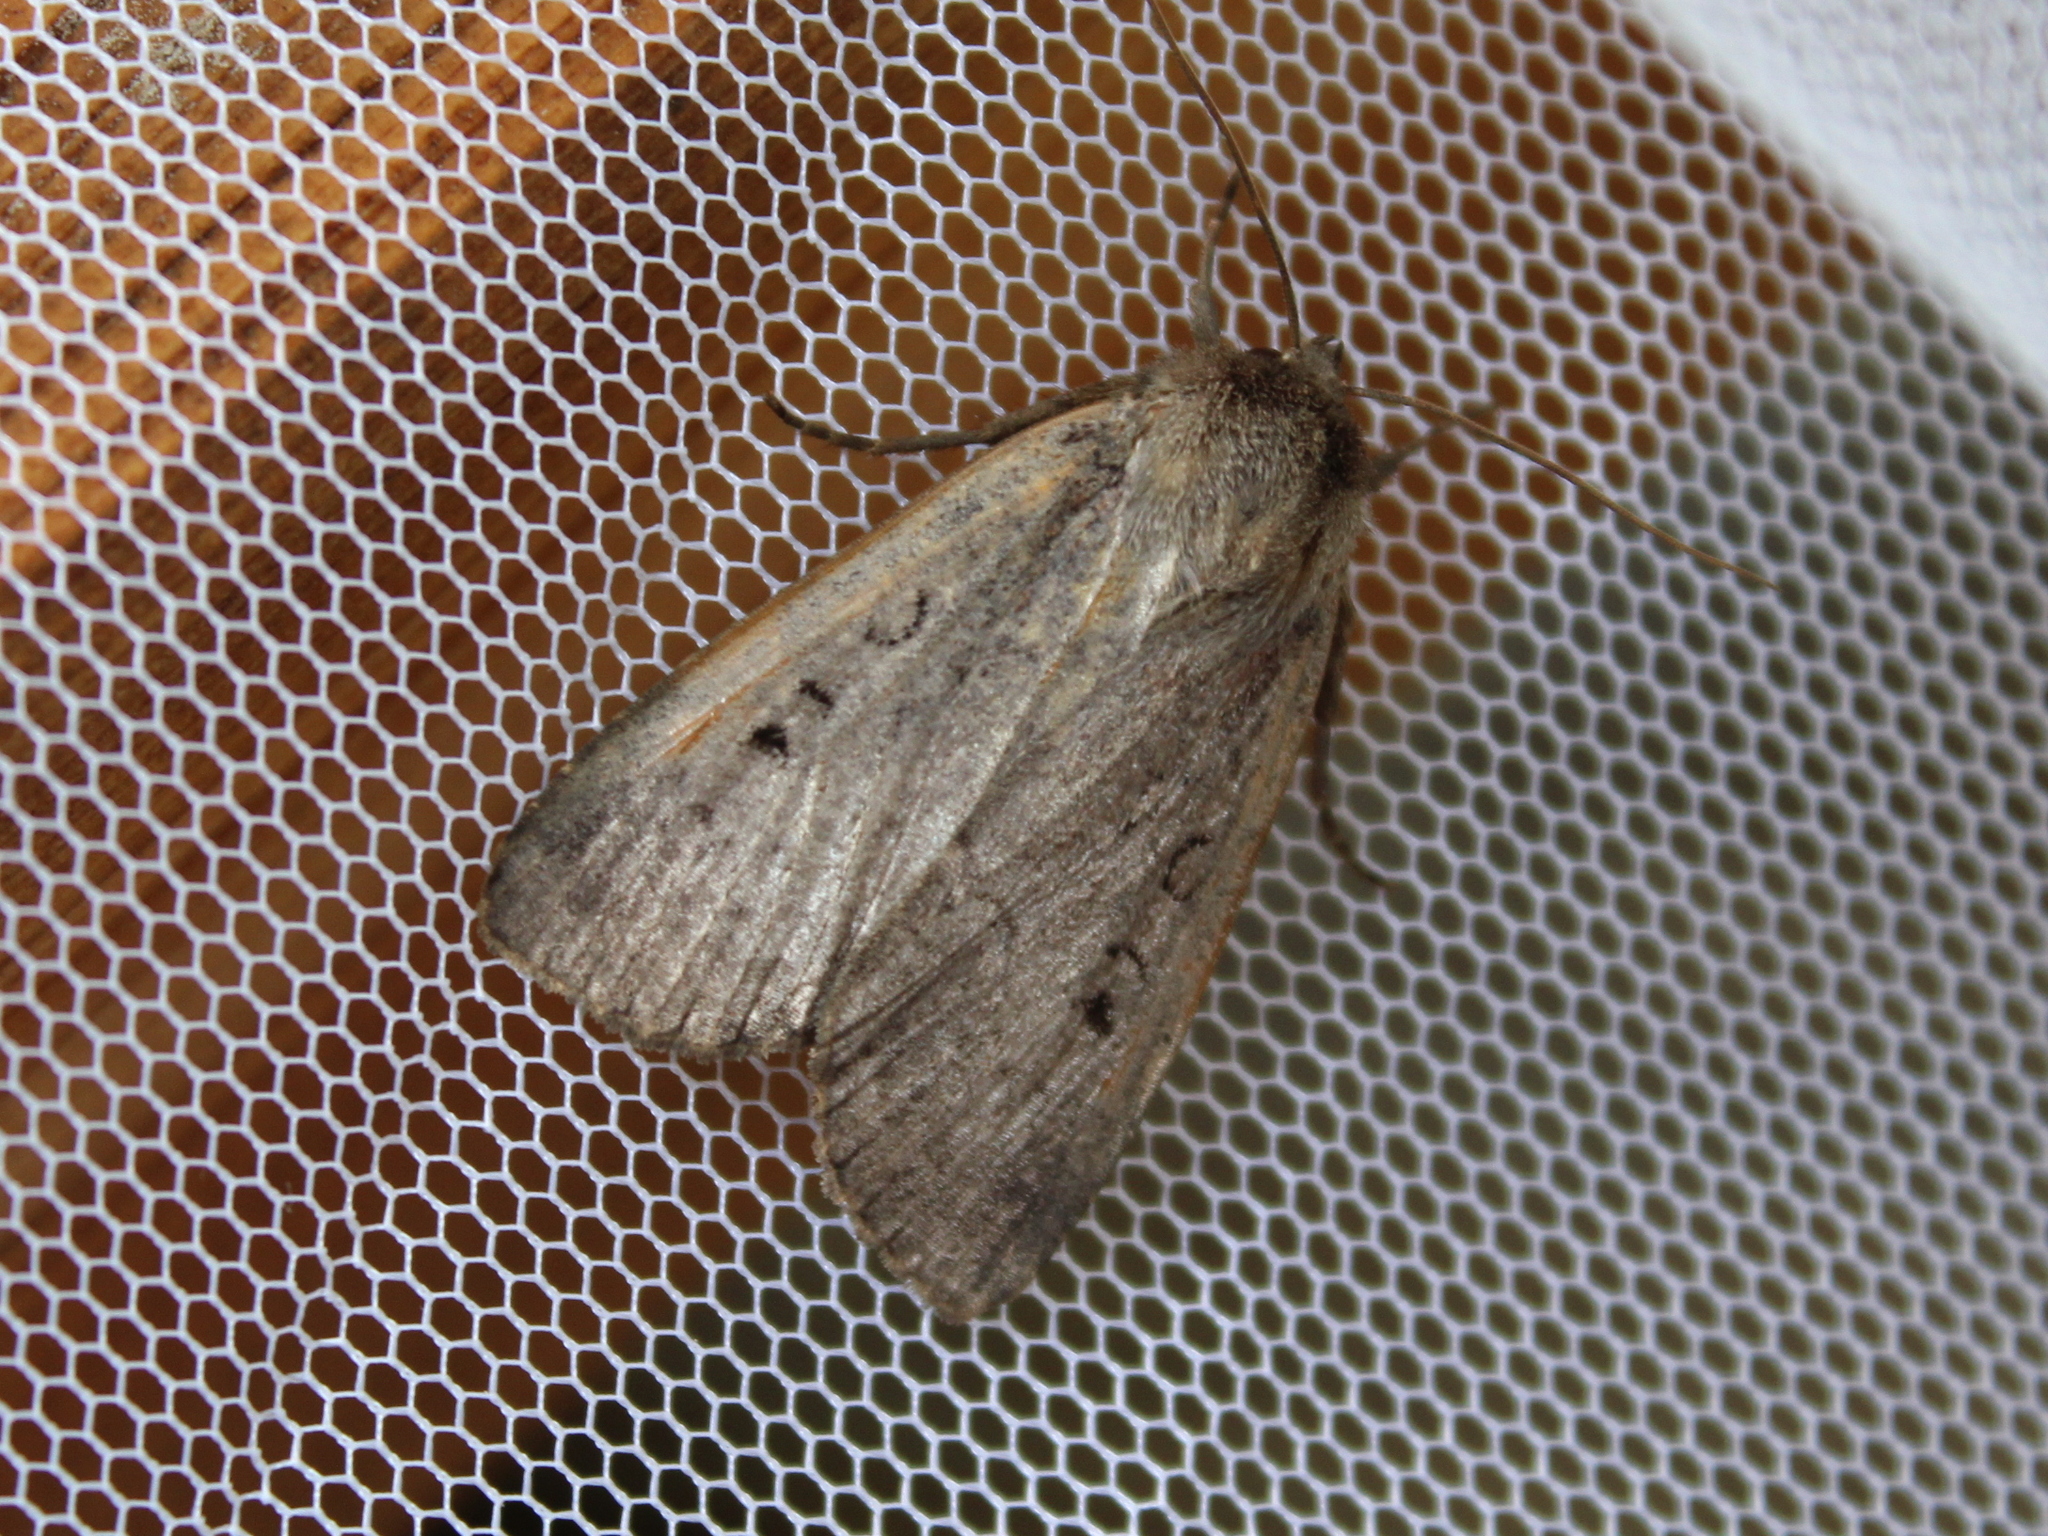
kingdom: Animalia
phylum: Arthropoda
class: Insecta
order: Lepidoptera
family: Noctuidae
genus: Graphiphora
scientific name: Graphiphora augur
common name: Double dart
